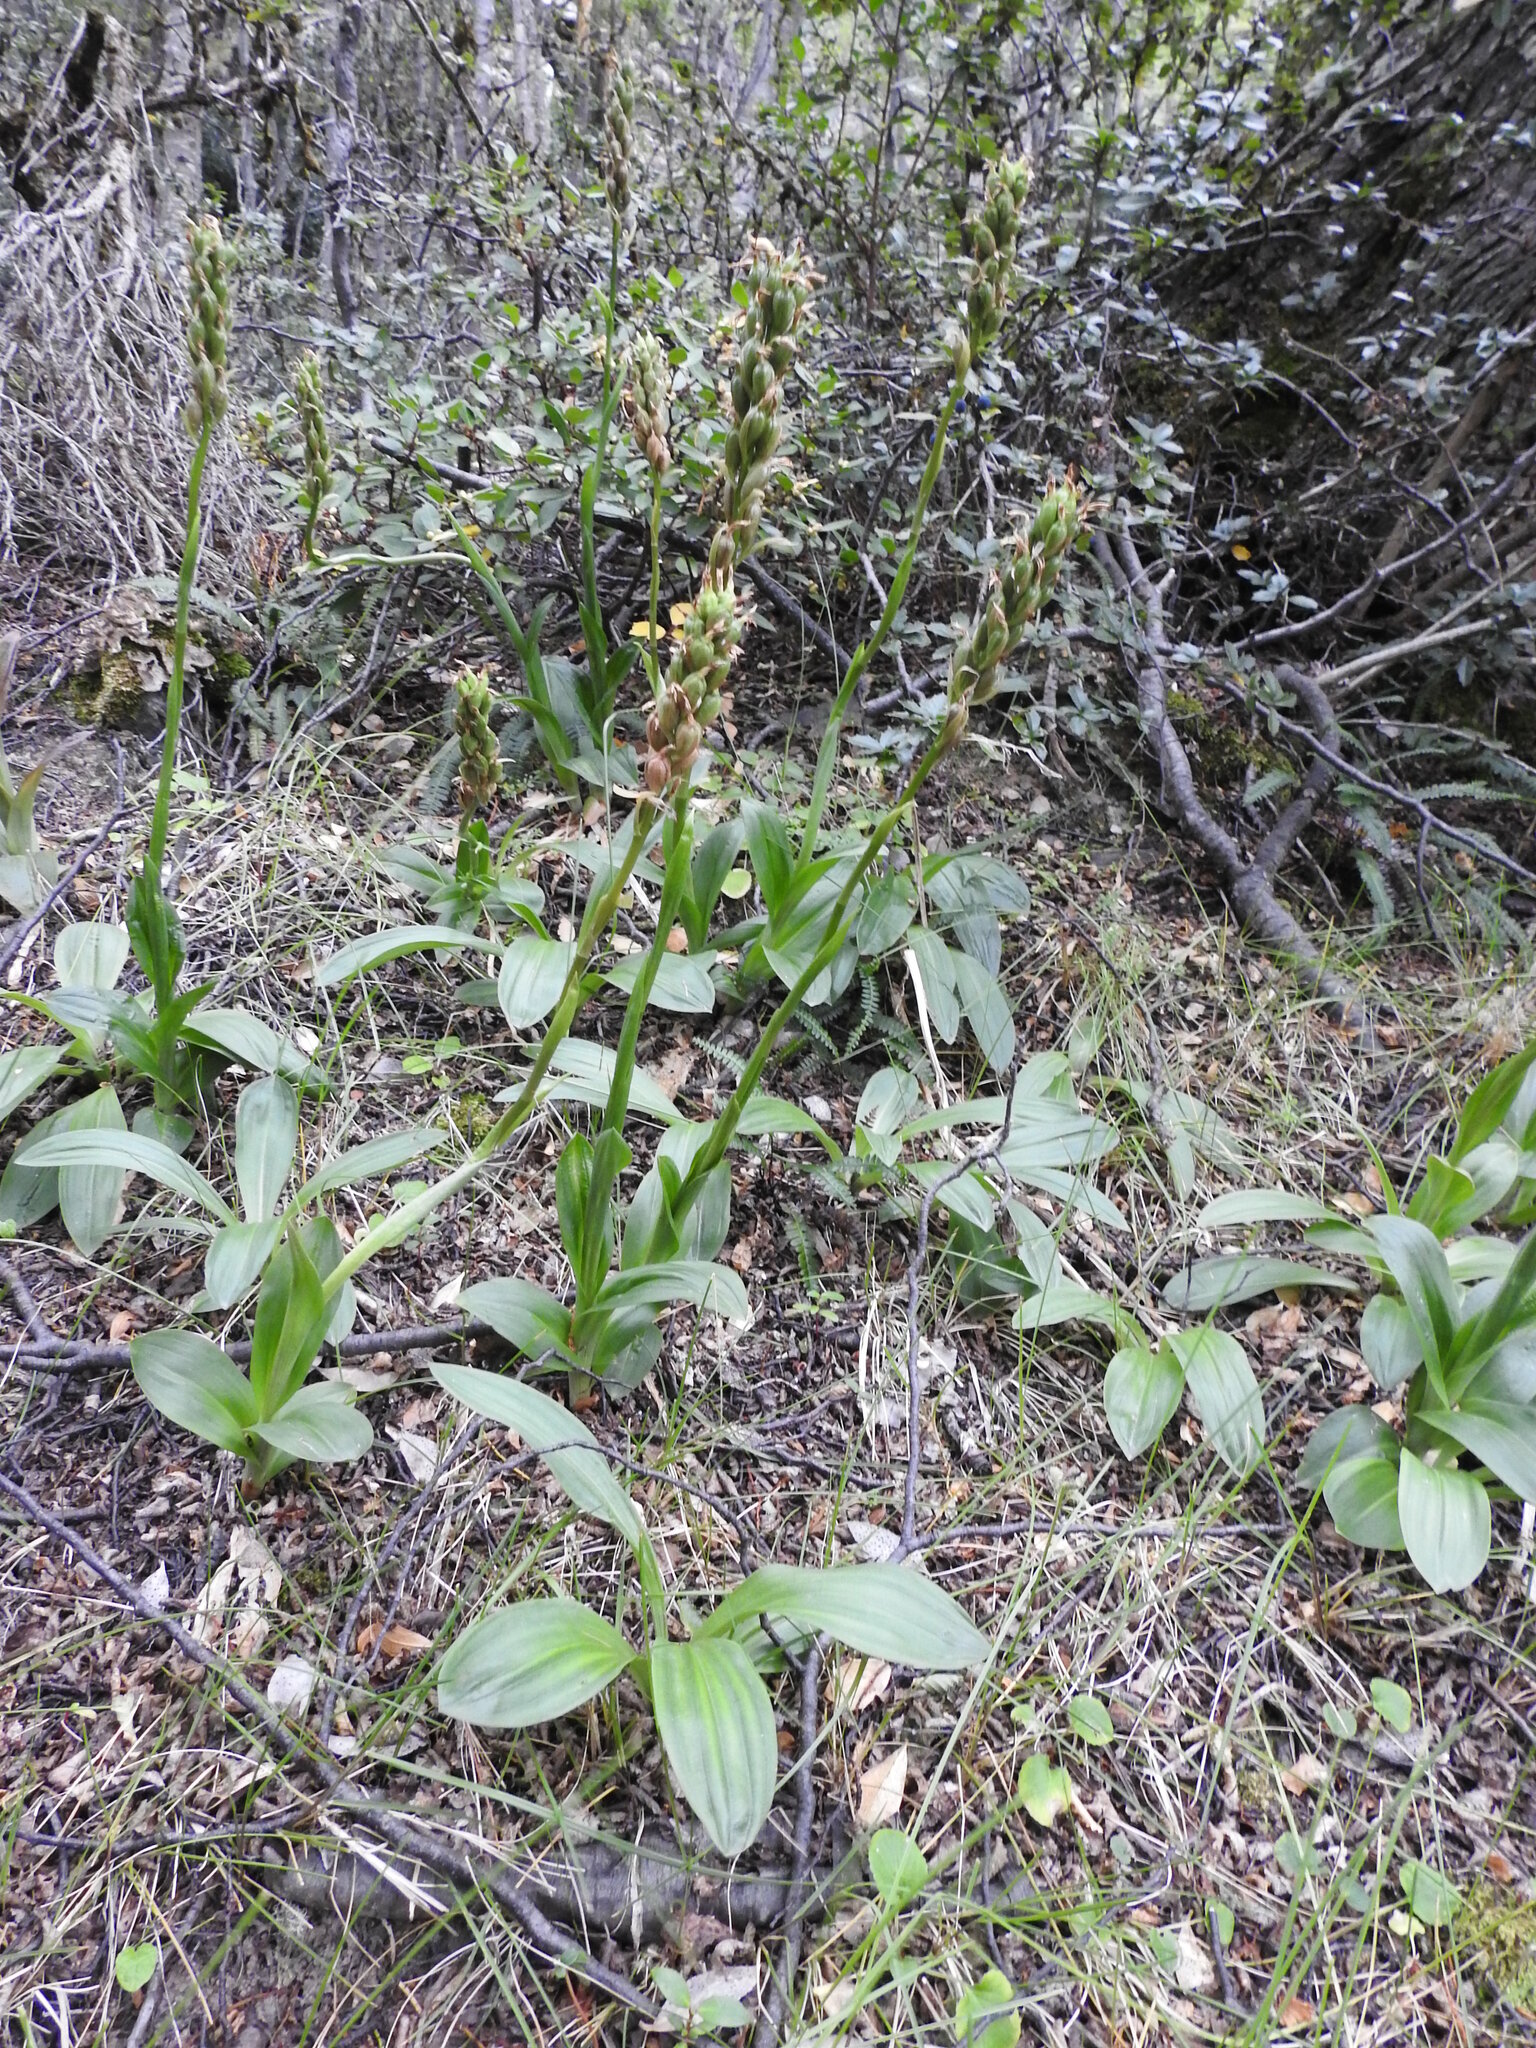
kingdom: Plantae
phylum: Tracheophyta
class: Liliopsida
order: Asparagales
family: Orchidaceae
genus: Gavilea
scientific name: Gavilea lutea
